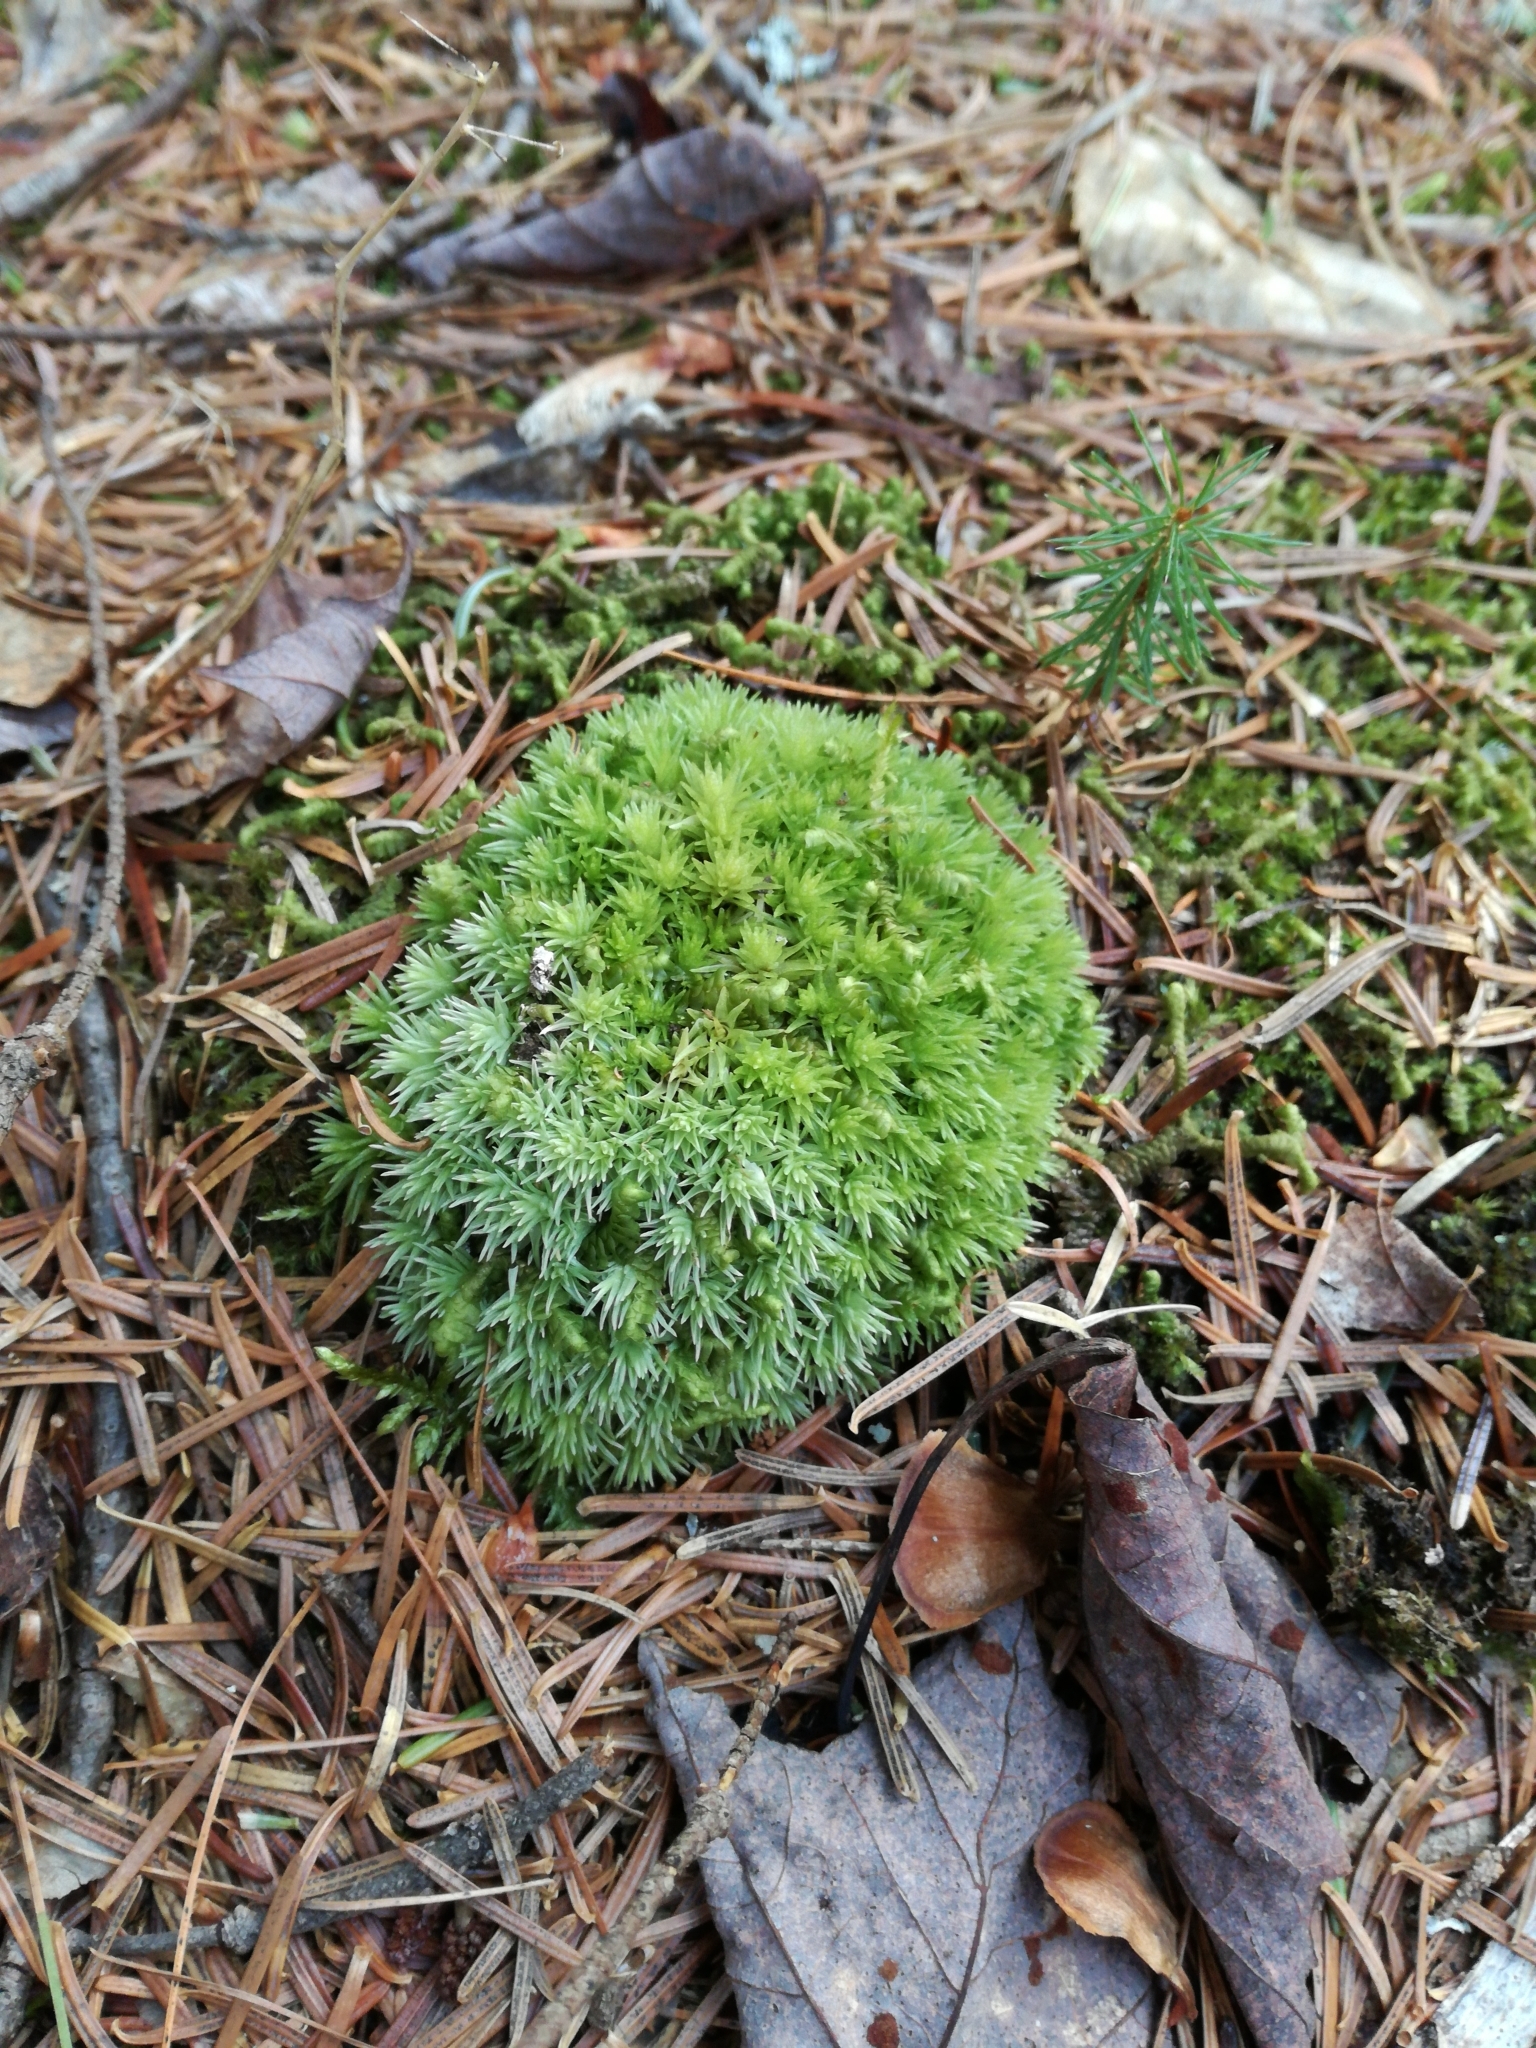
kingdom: Plantae
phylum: Bryophyta
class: Bryopsida
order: Dicranales
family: Leucobryaceae
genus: Leucobryum
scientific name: Leucobryum glaucum
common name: Large white-moss
